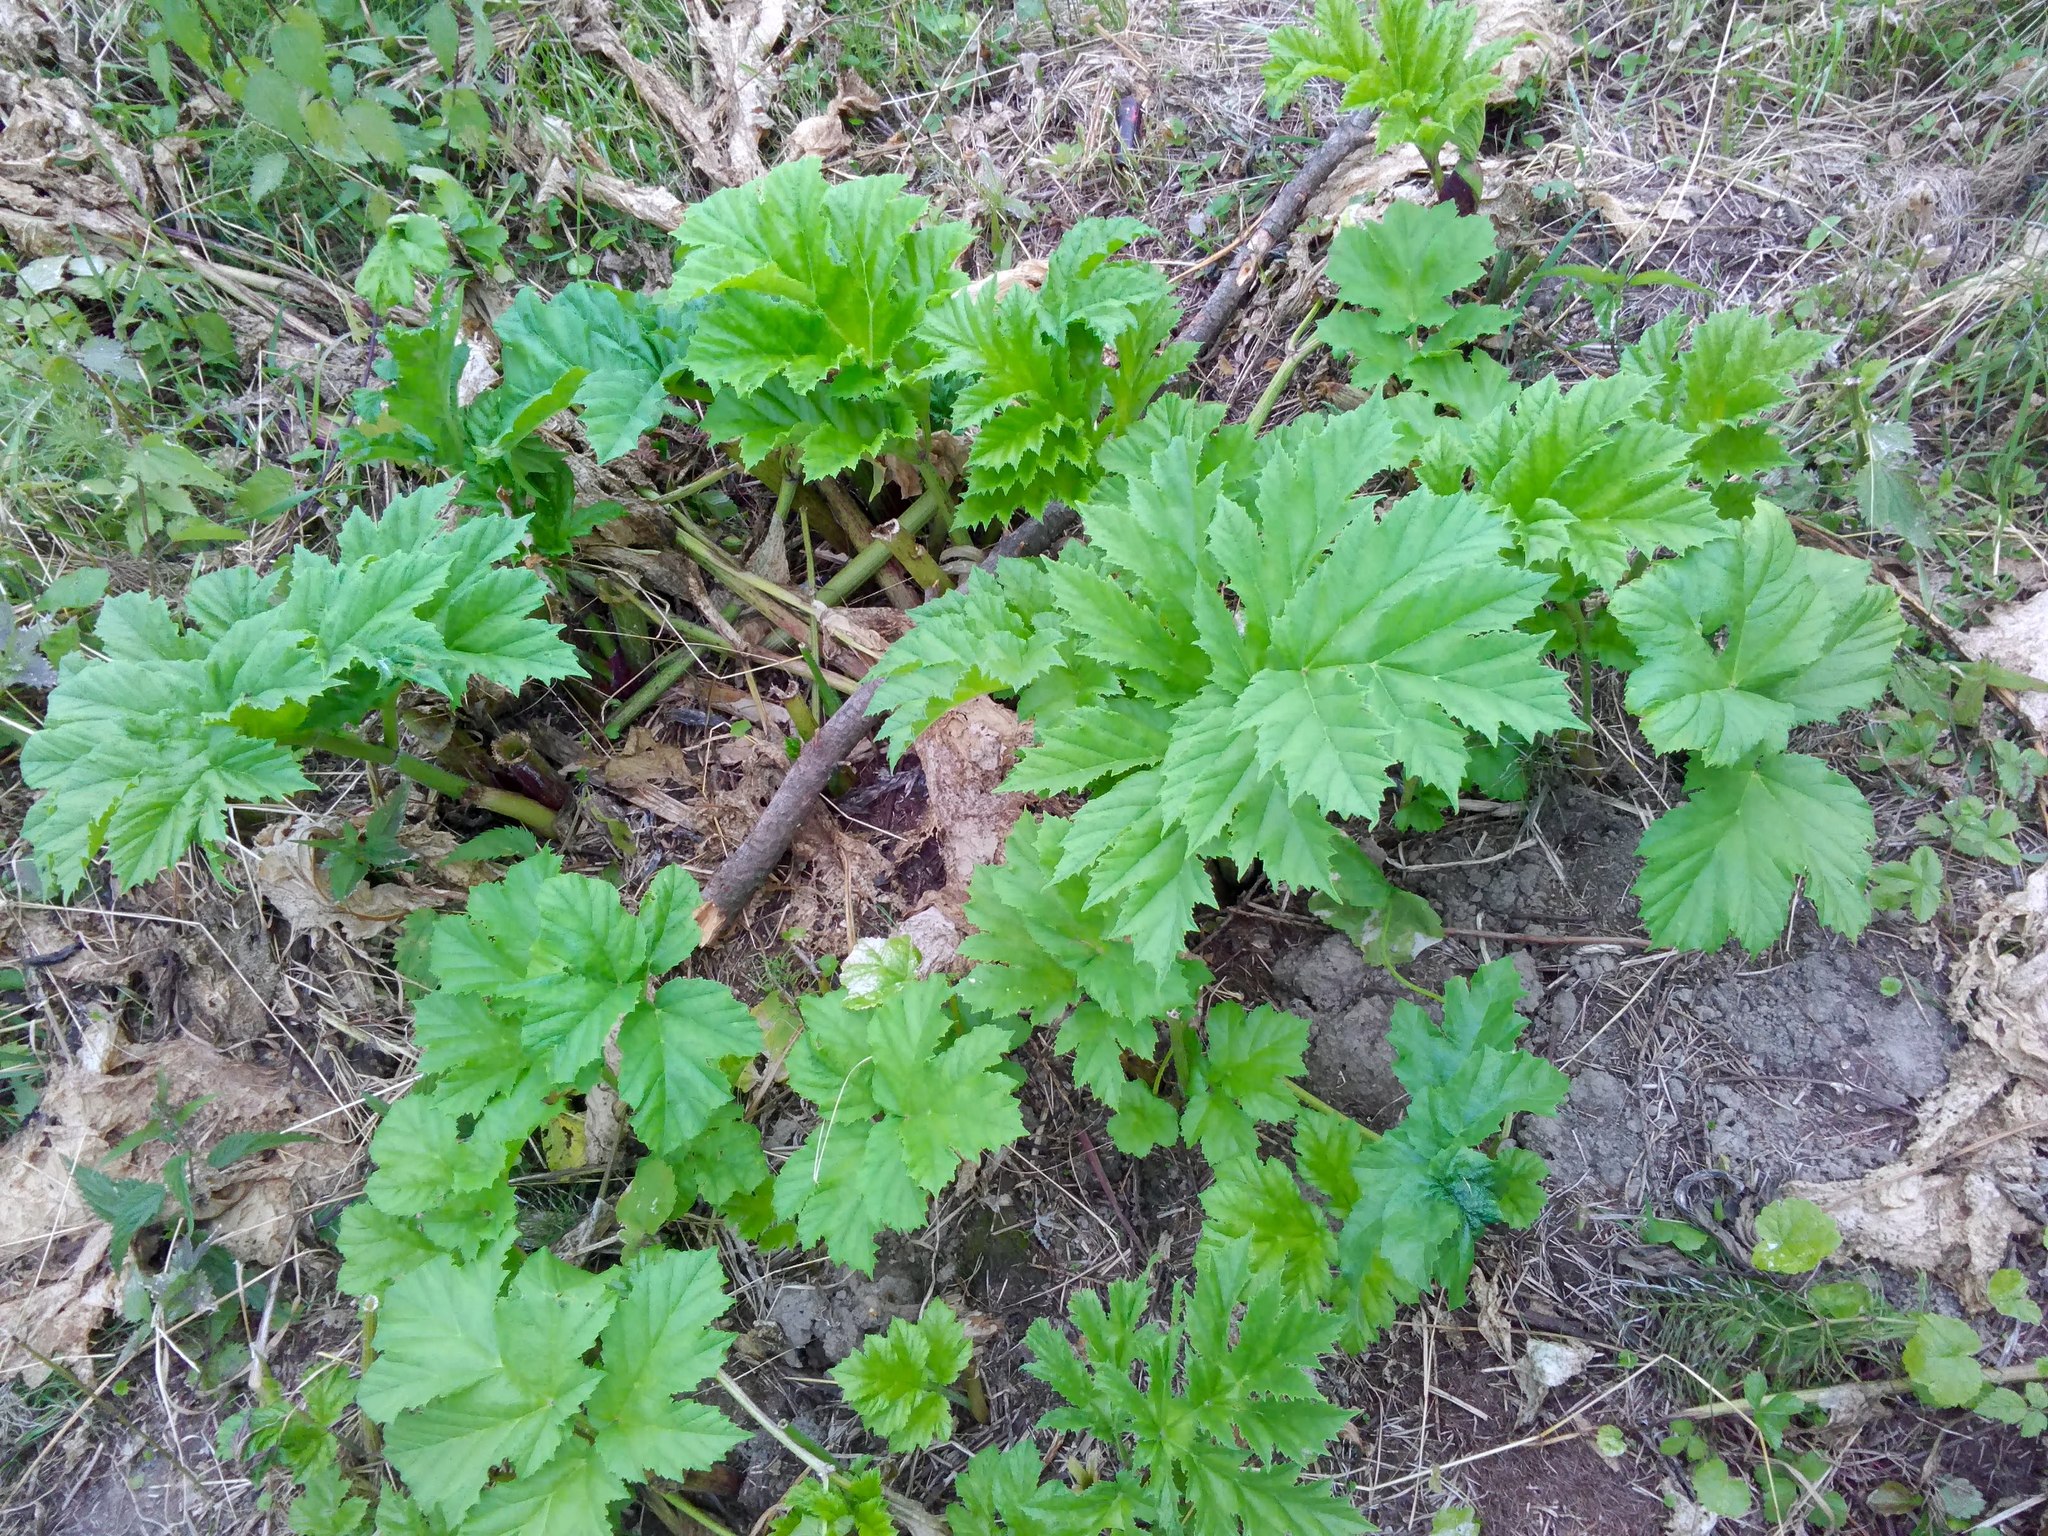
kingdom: Plantae
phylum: Tracheophyta
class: Magnoliopsida
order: Apiales
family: Apiaceae
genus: Heracleum
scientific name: Heracleum sosnowskyi
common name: Sosnowsky's hogweed
